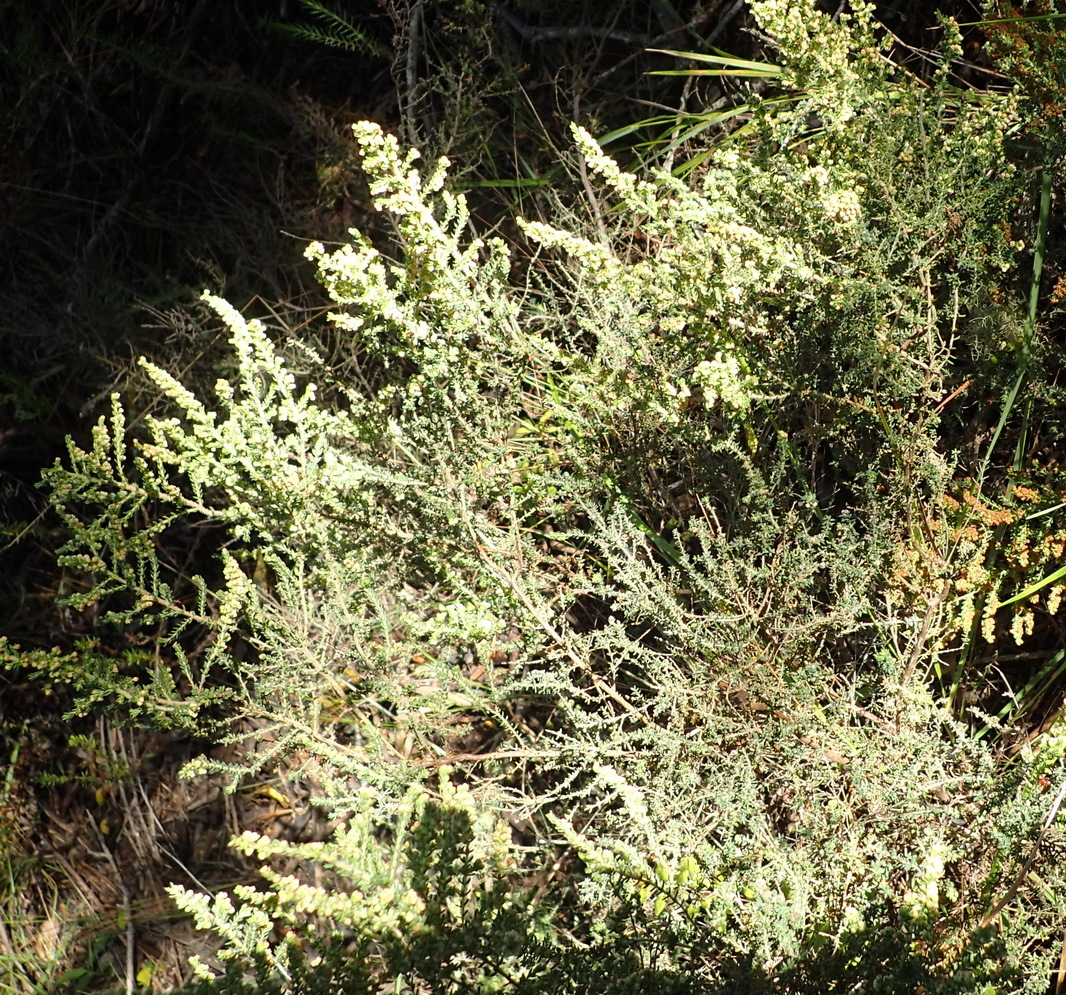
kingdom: Plantae
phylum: Tracheophyta
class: Magnoliopsida
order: Ericales
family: Ericaceae
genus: Erica
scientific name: Erica leucopelta
